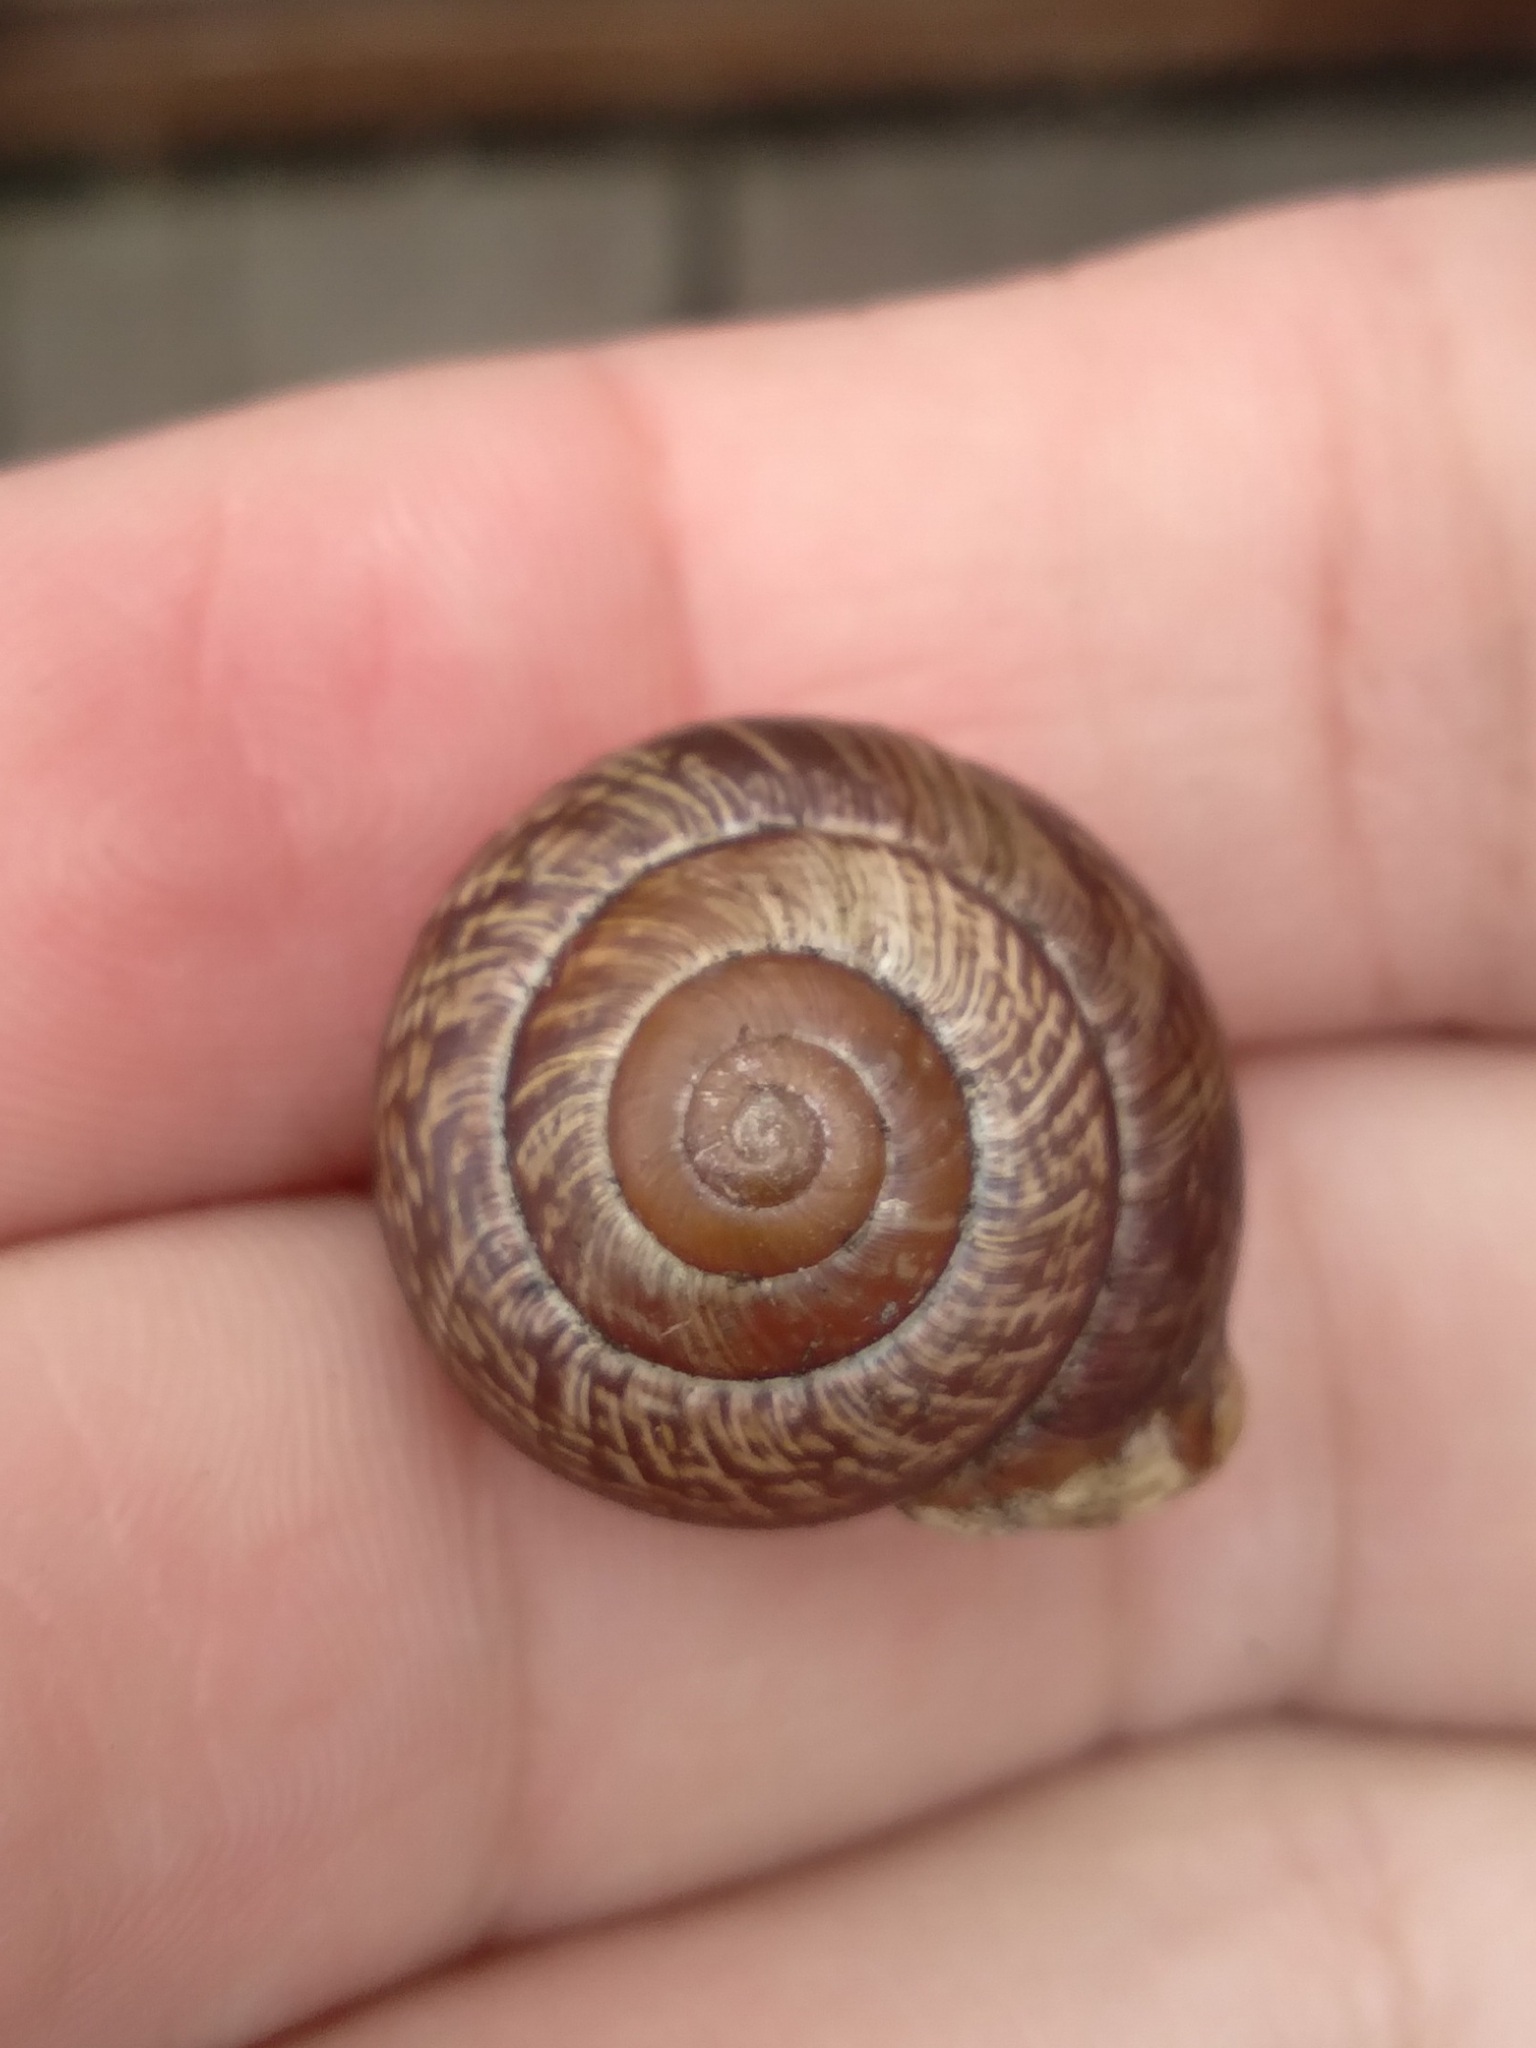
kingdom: Animalia
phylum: Mollusca
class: Gastropoda
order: Stylommatophora
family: Helicidae
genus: Arianta
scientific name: Arianta arbustorum
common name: Copse snail
